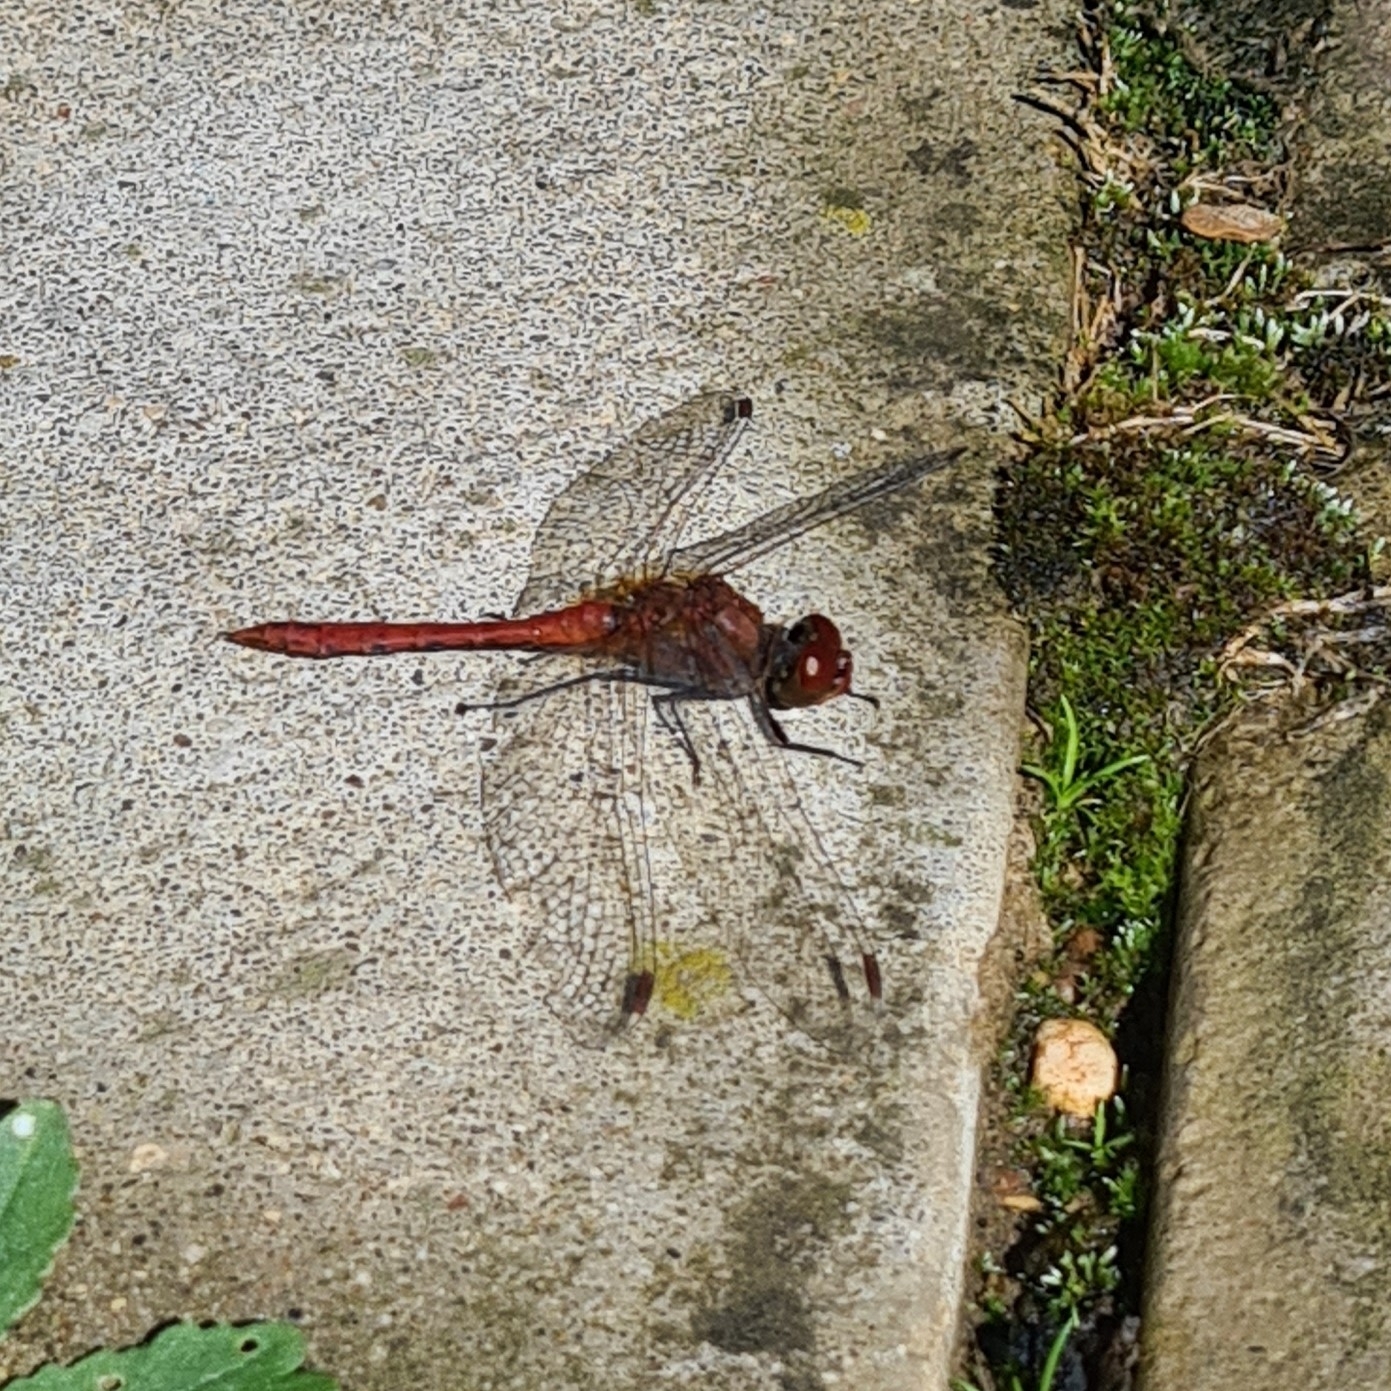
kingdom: Animalia
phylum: Arthropoda
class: Insecta
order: Odonata
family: Libellulidae
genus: Sympetrum
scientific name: Sympetrum sanguineum
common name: Ruddy darter
